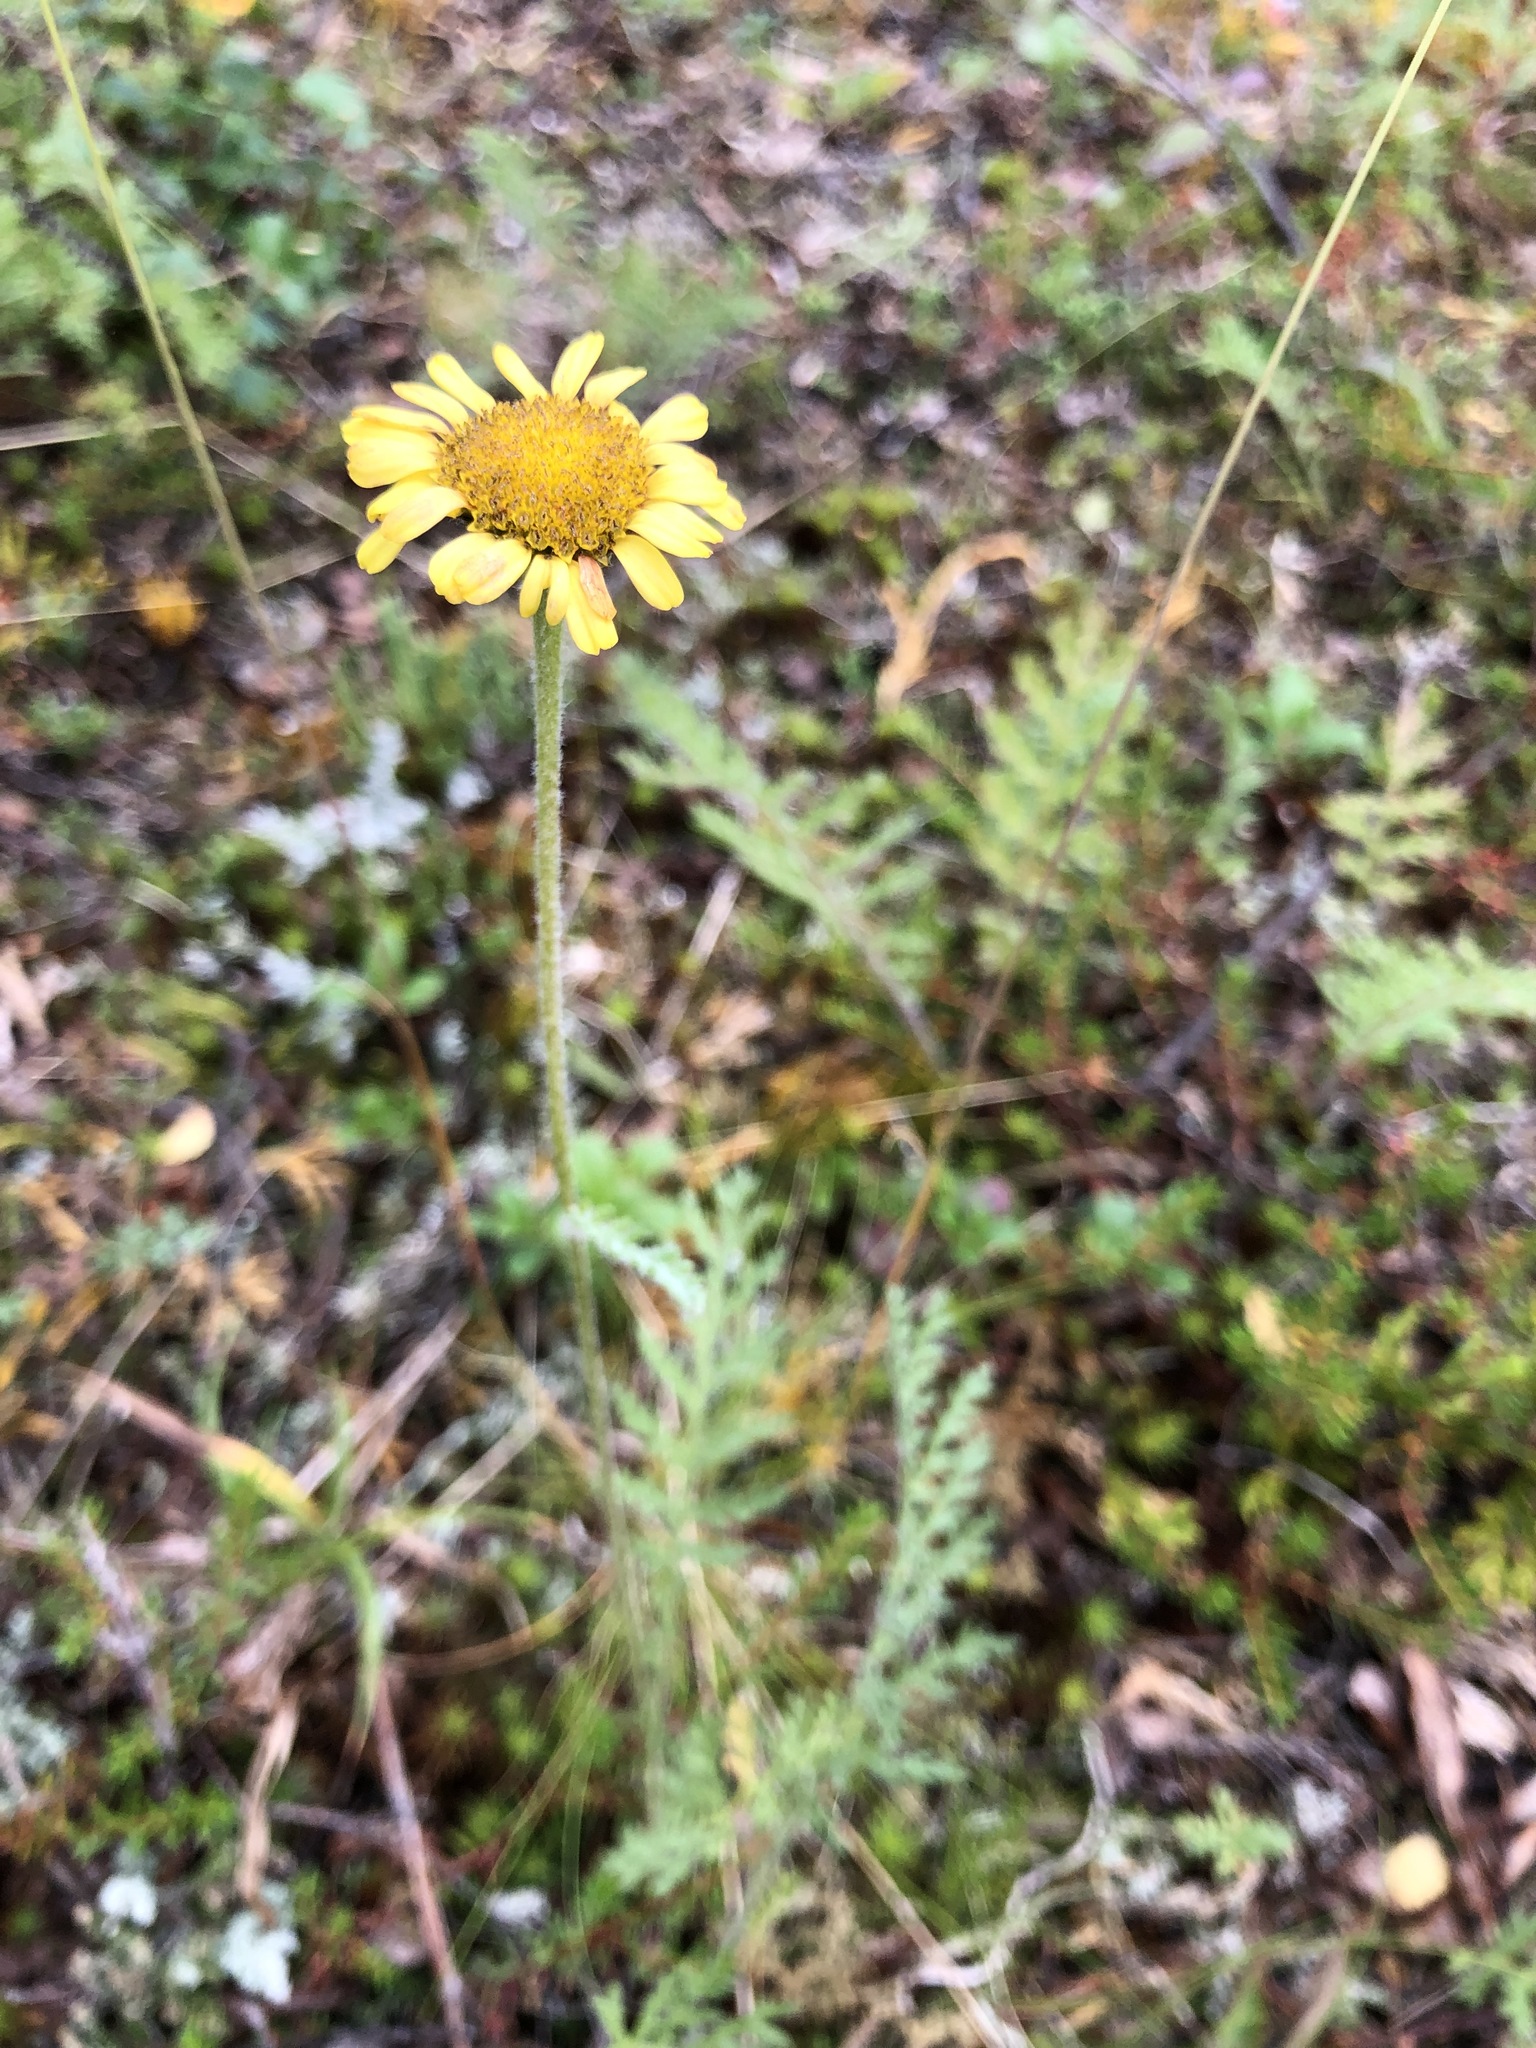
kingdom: Plantae
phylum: Tracheophyta
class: Magnoliopsida
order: Asterales
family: Asteraceae
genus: Tanacetum
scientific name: Tanacetum bipinnatum
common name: Dwarf tansy
